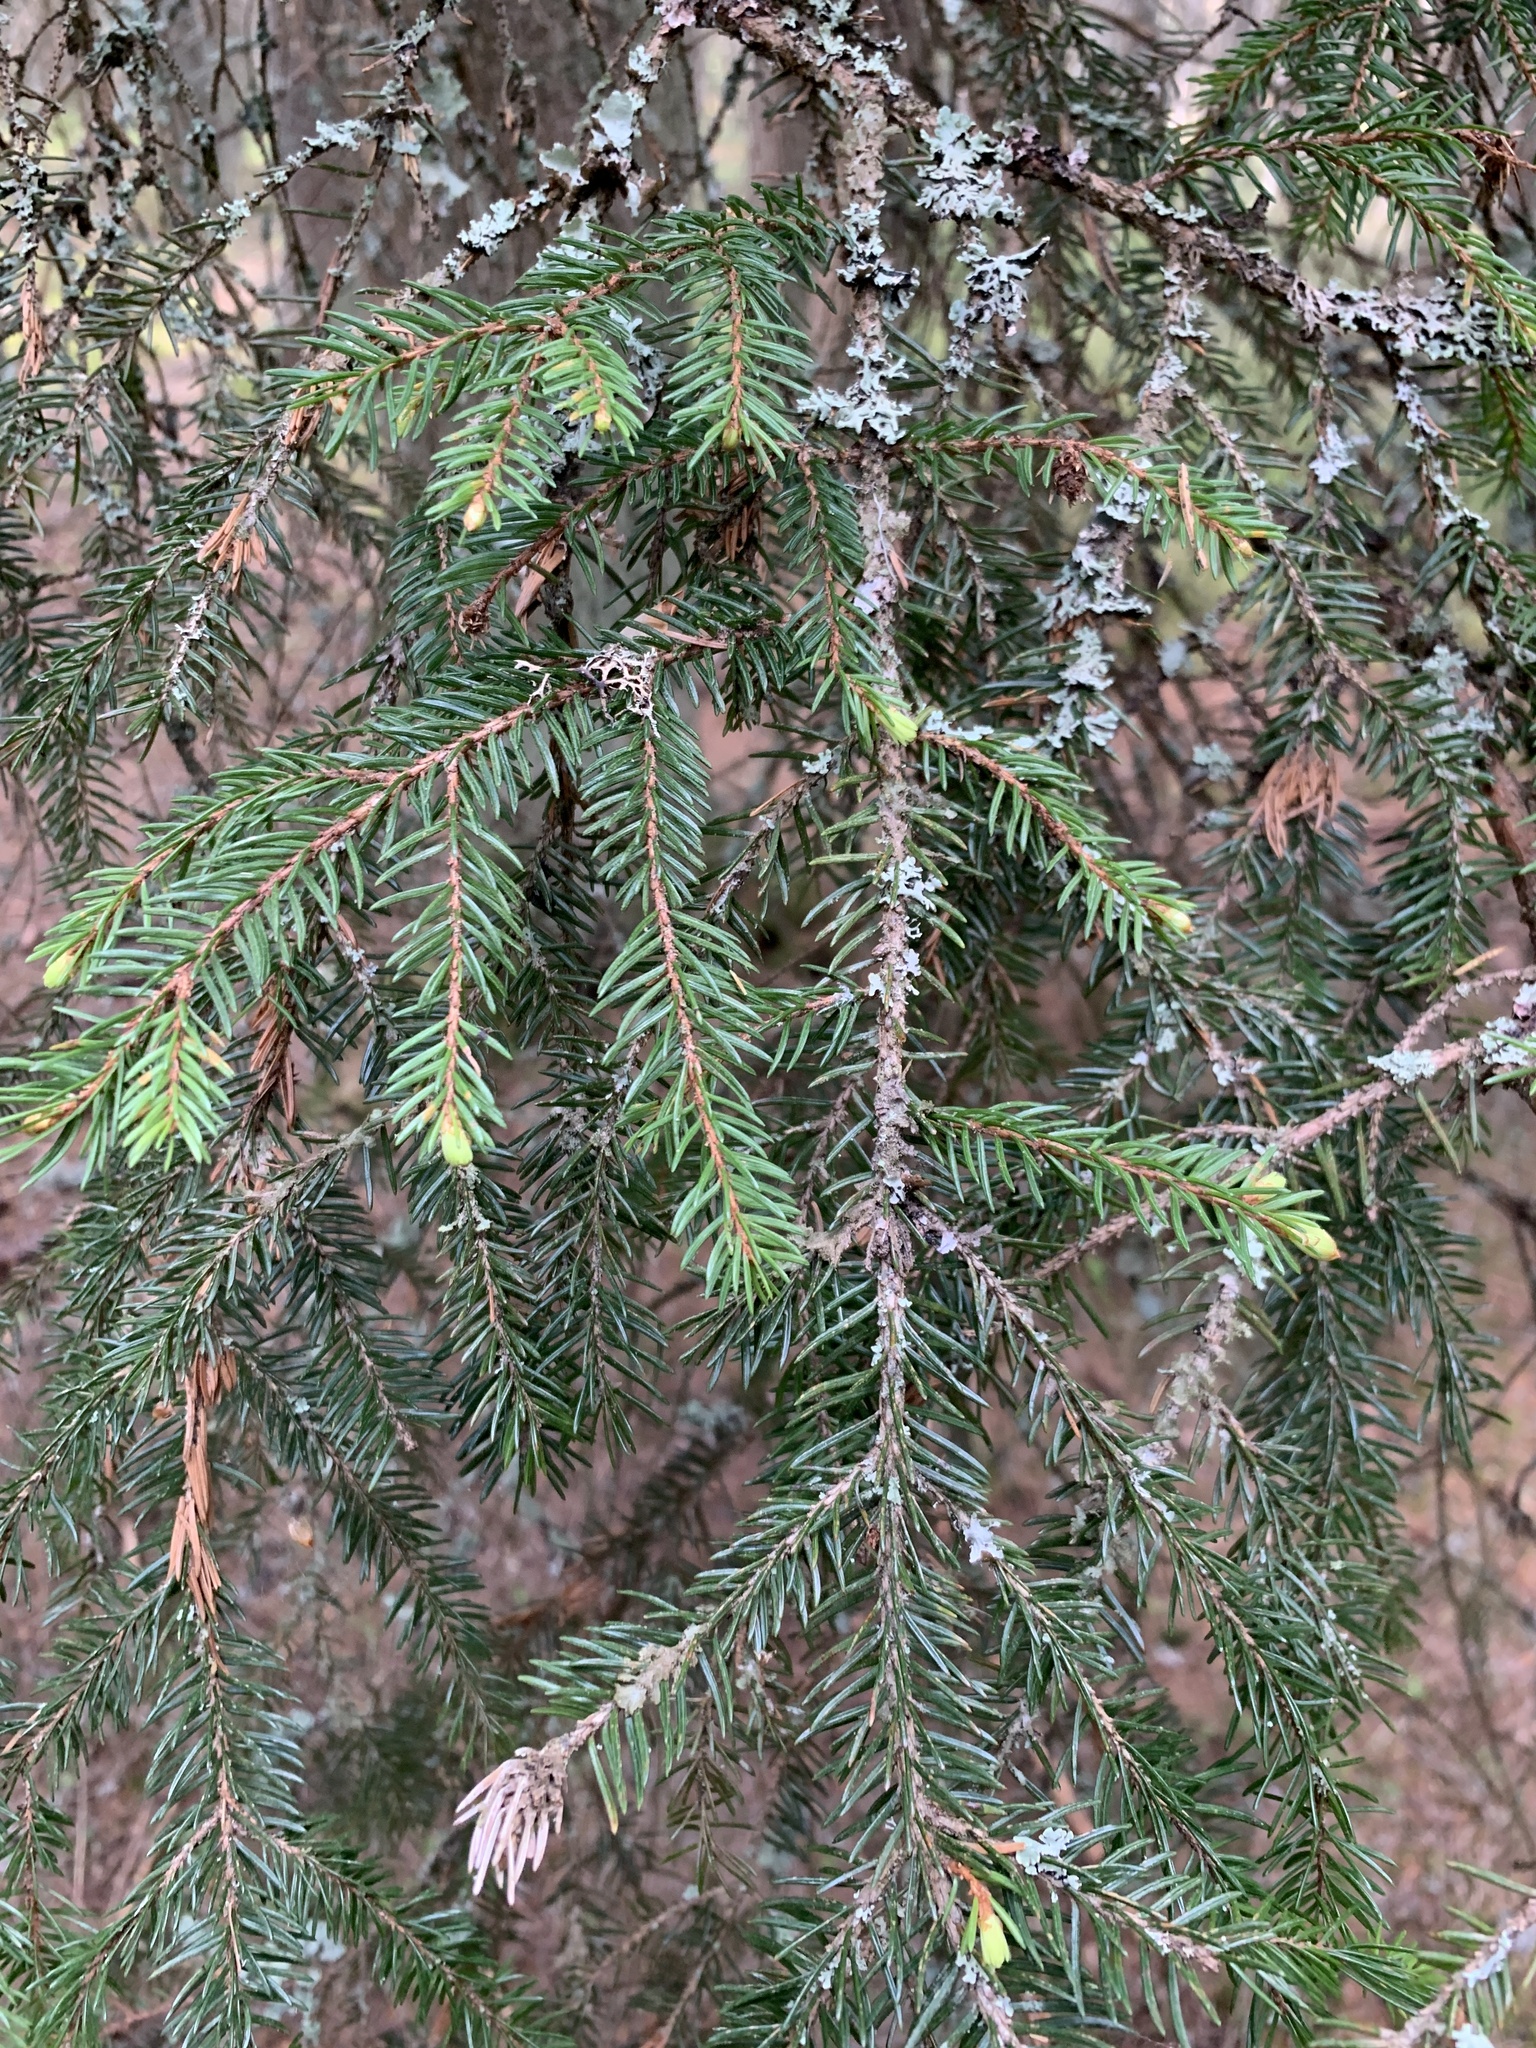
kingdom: Plantae
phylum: Tracheophyta
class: Pinopsida
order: Pinales
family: Pinaceae
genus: Picea
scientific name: Picea abies
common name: Norway spruce
